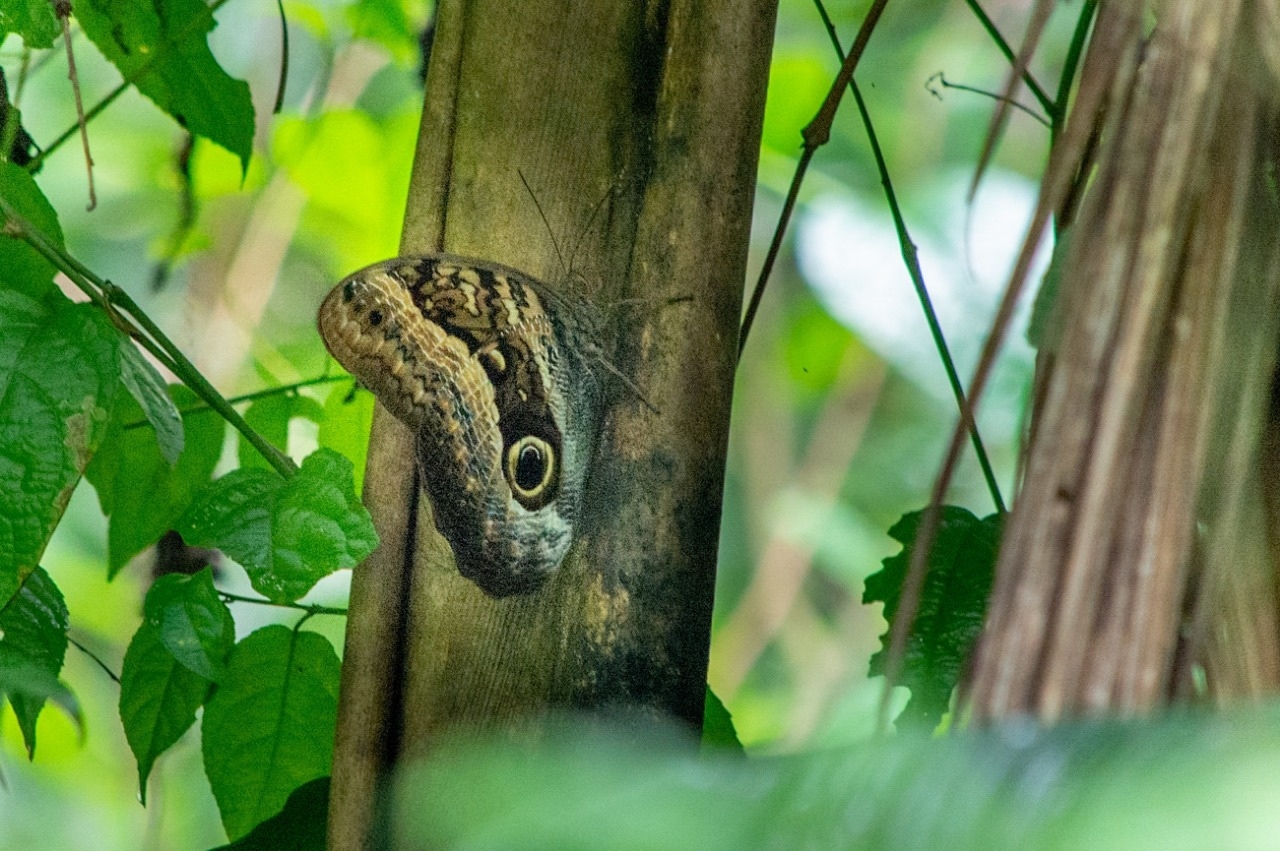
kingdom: Animalia
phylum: Arthropoda
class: Insecta
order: Lepidoptera
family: Nymphalidae
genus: Caligo
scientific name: Caligo arisbe
